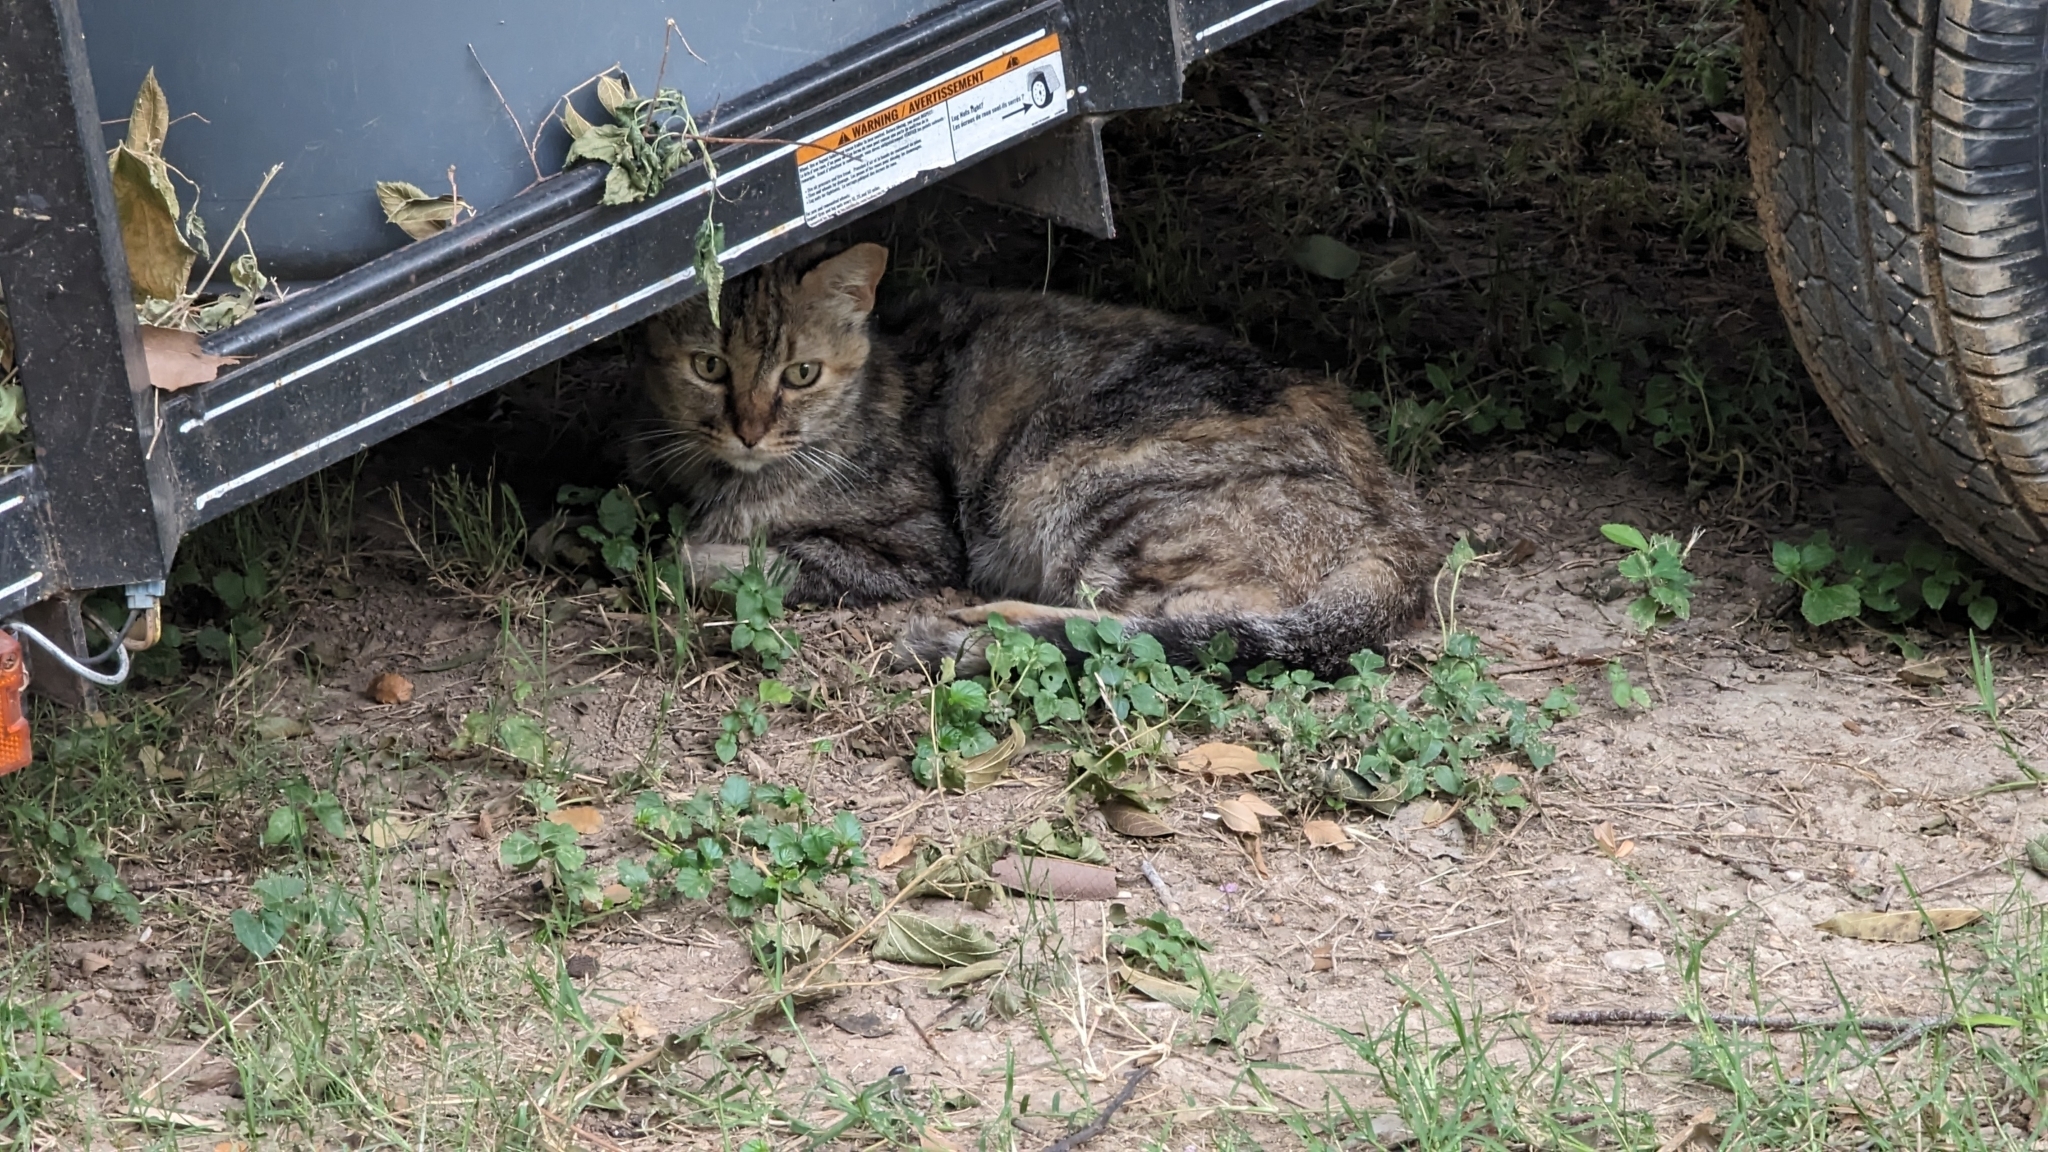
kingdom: Animalia
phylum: Chordata
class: Mammalia
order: Carnivora
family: Felidae
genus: Felis
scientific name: Felis catus
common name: Domestic cat
